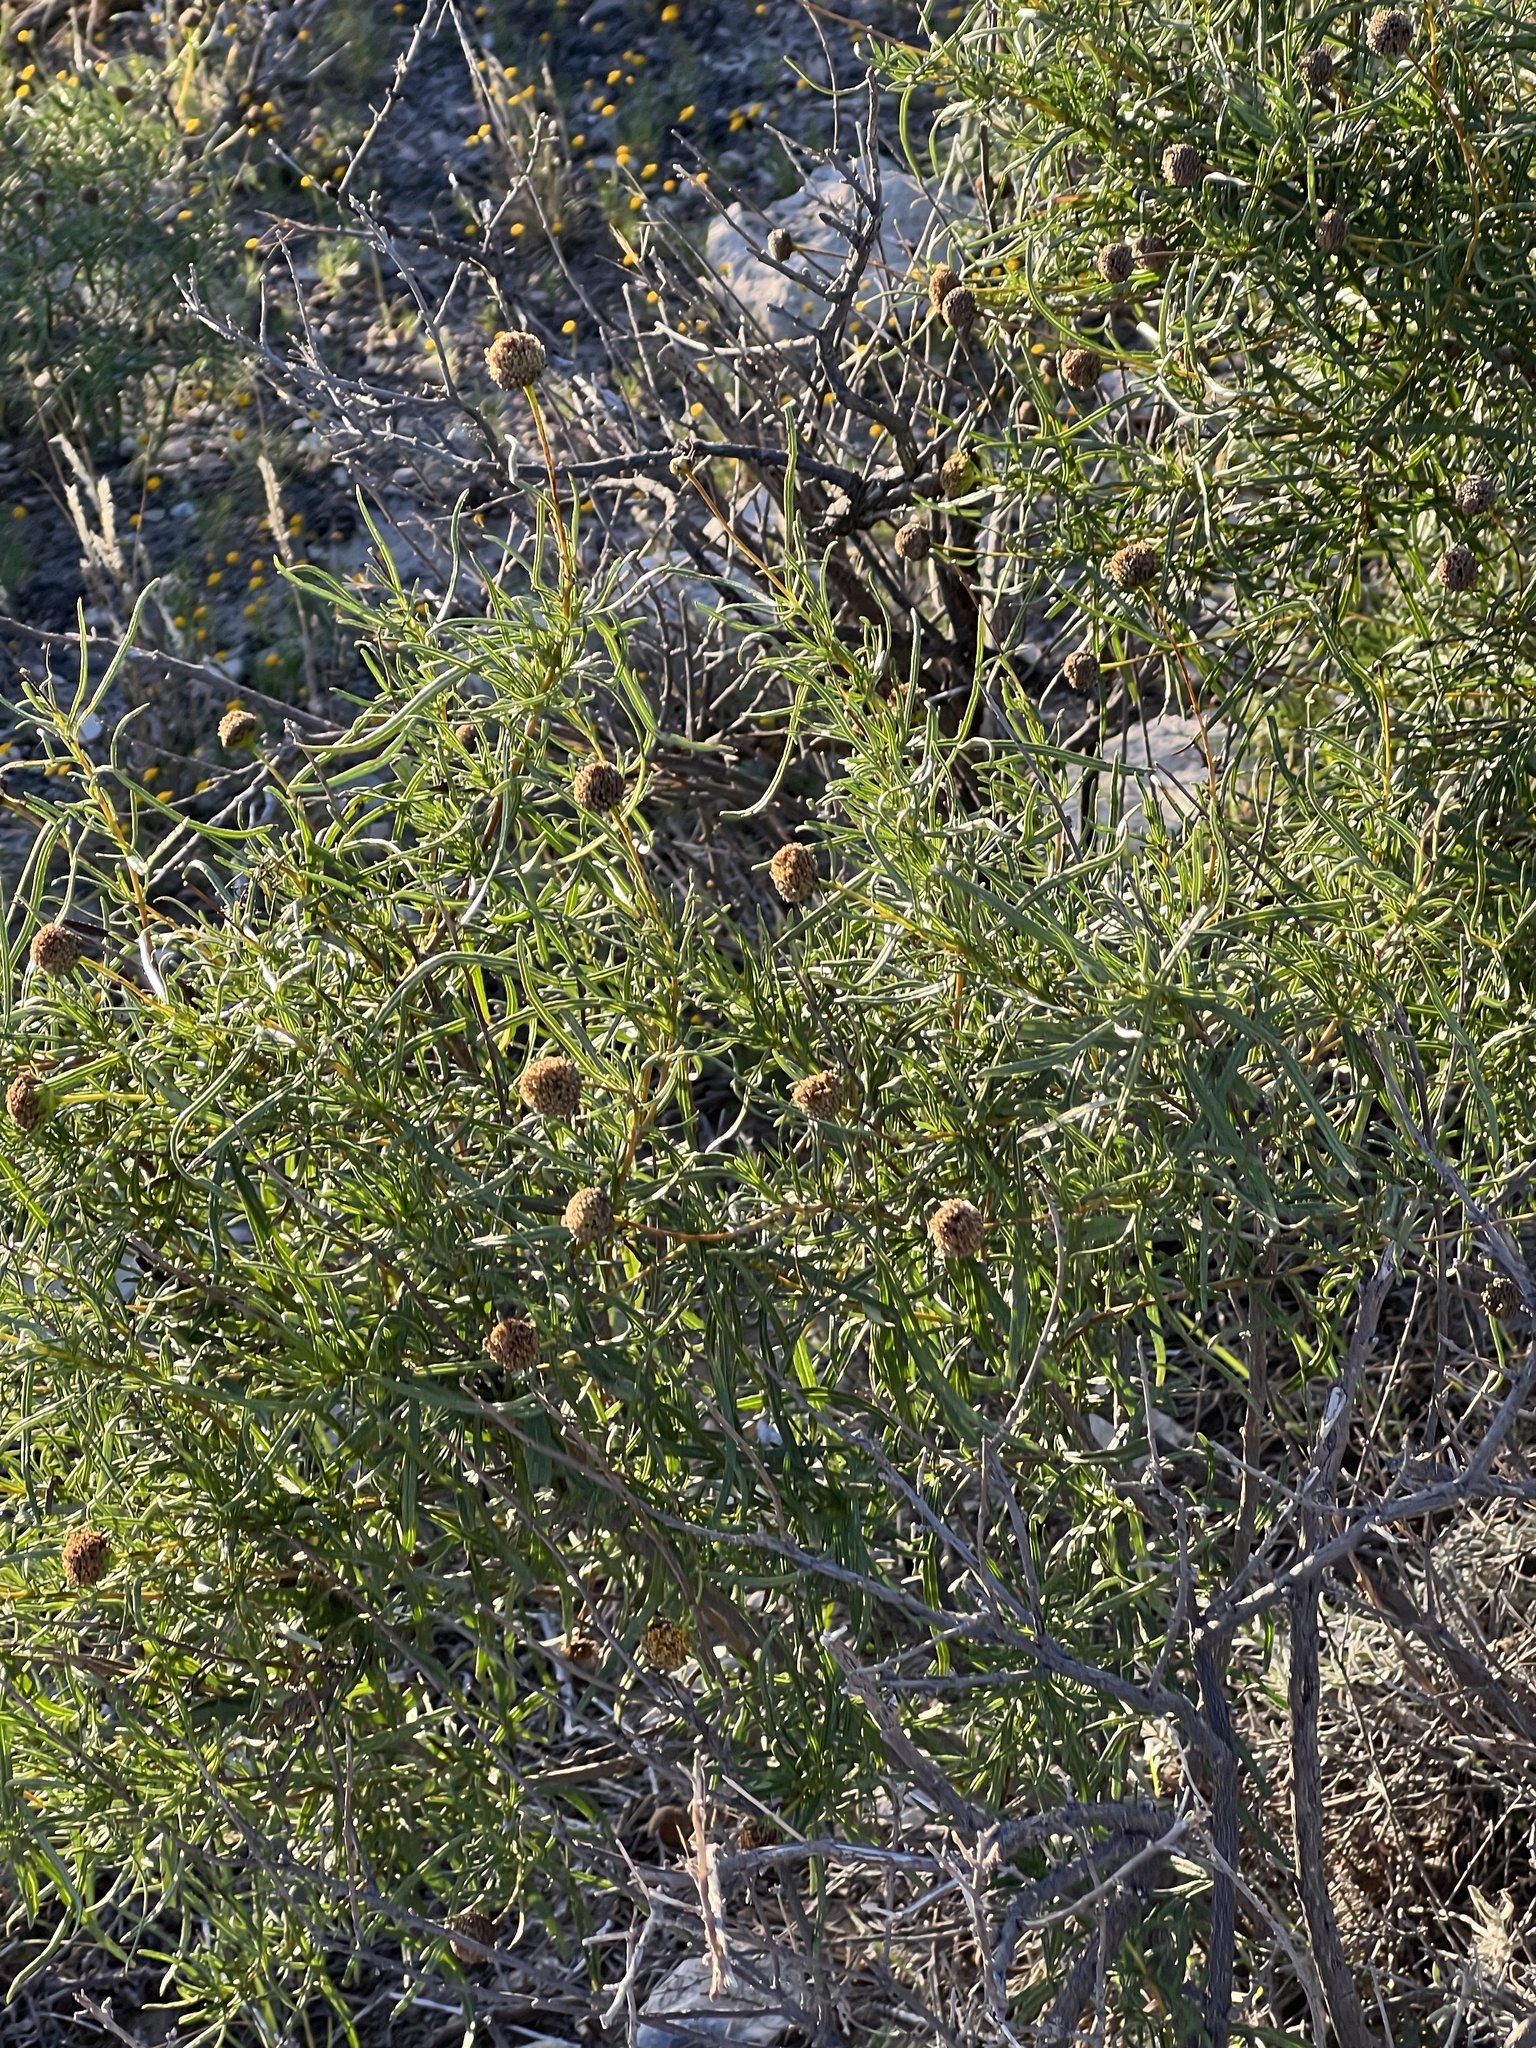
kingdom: Plantae
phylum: Tracheophyta
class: Magnoliopsida
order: Asterales
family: Asteraceae
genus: Sidneya
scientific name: Sidneya tenuifolia
